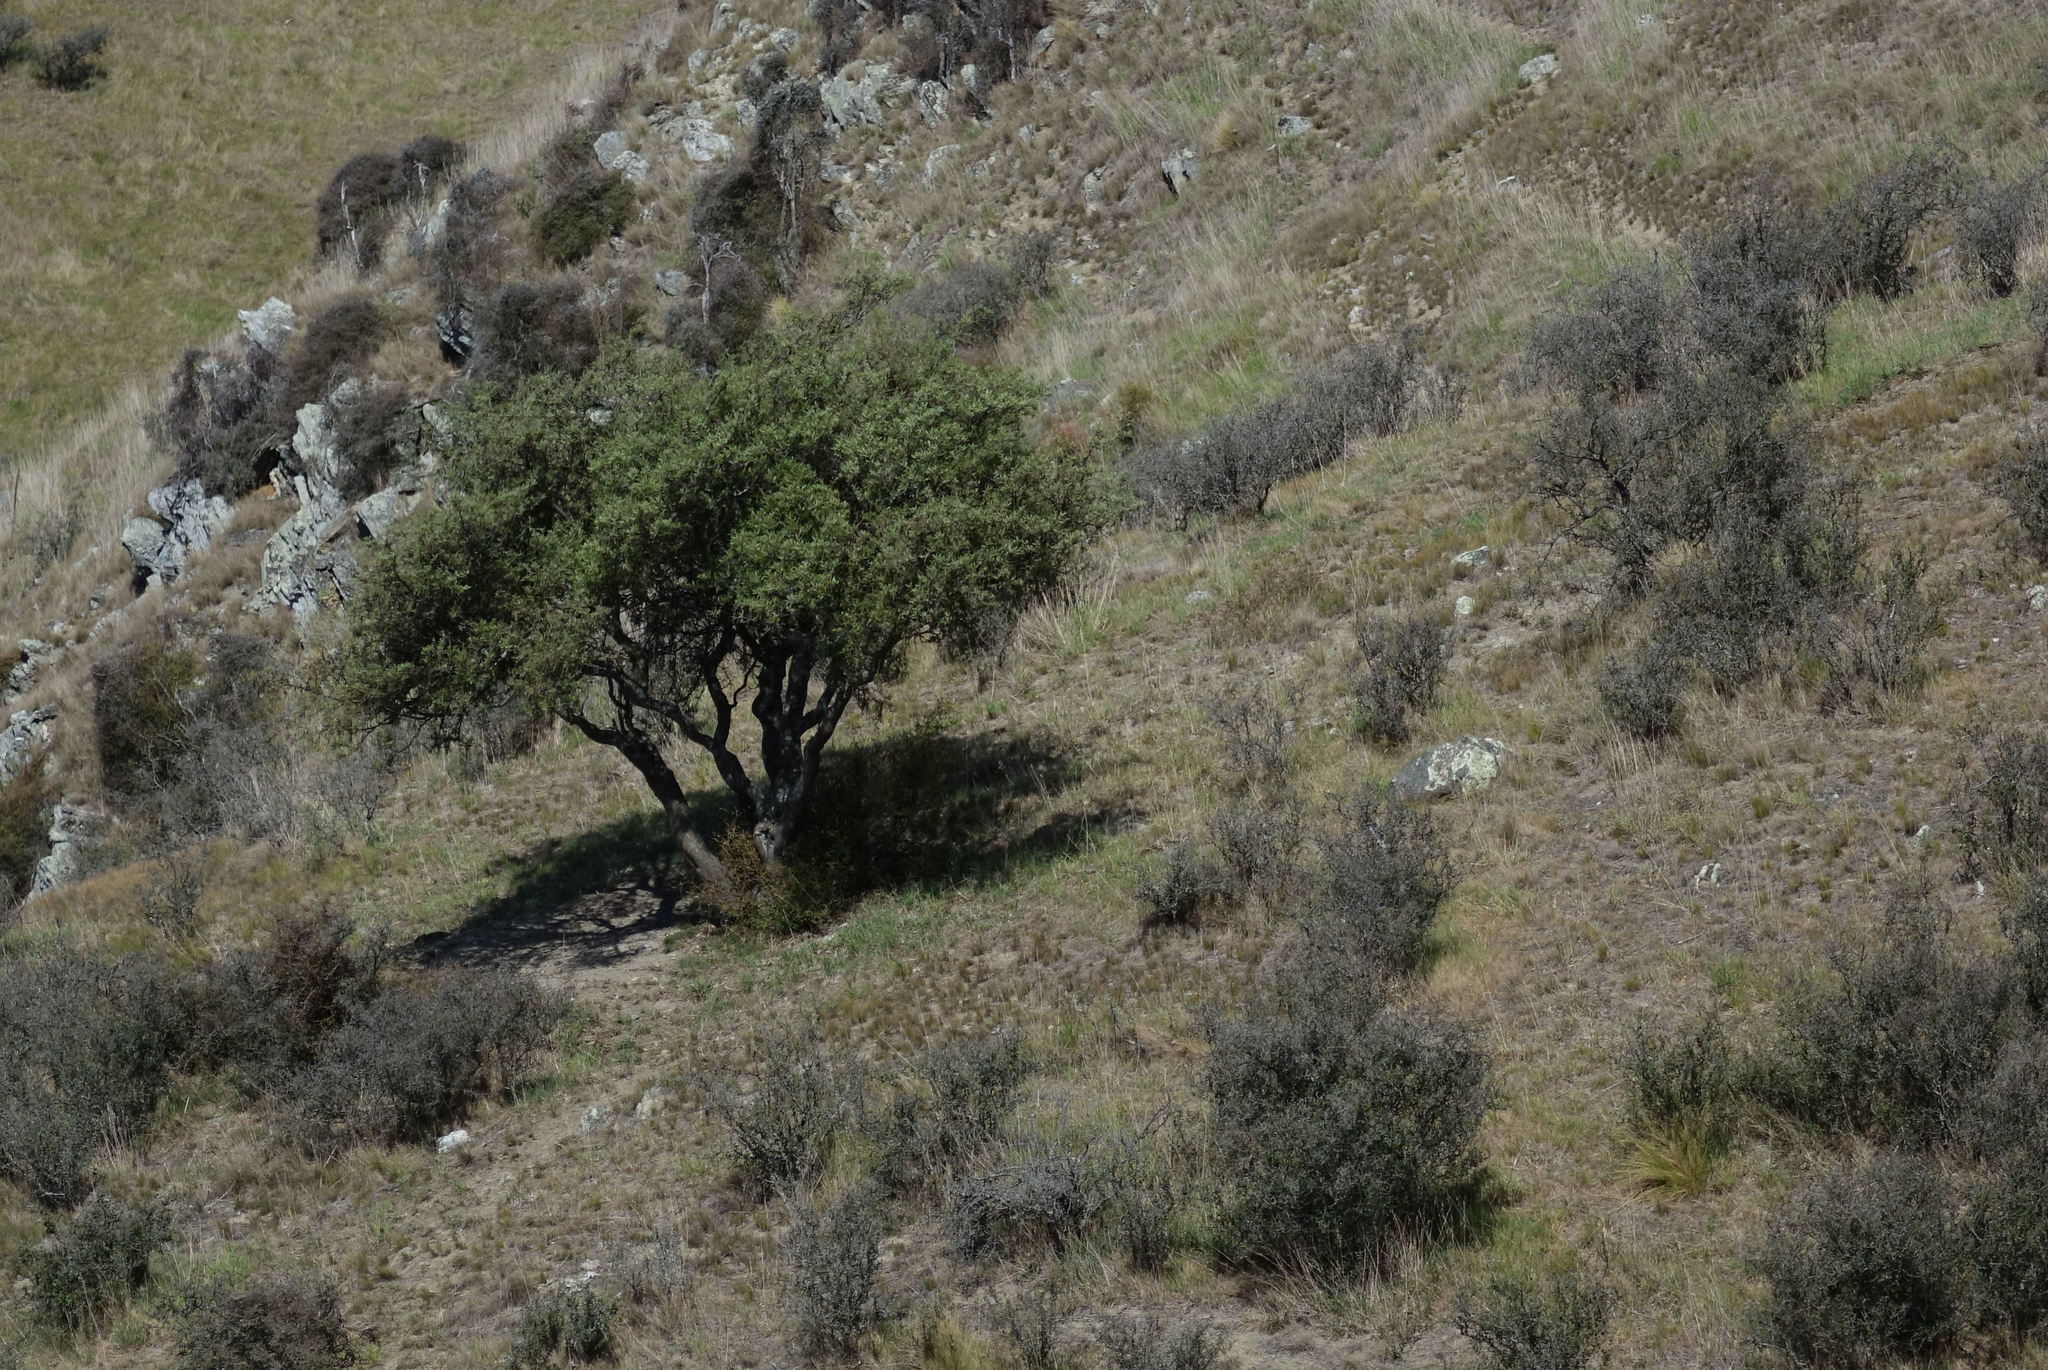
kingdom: Plantae
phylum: Tracheophyta
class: Magnoliopsida
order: Fabales
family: Fabaceae
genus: Sophora
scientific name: Sophora microphylla
